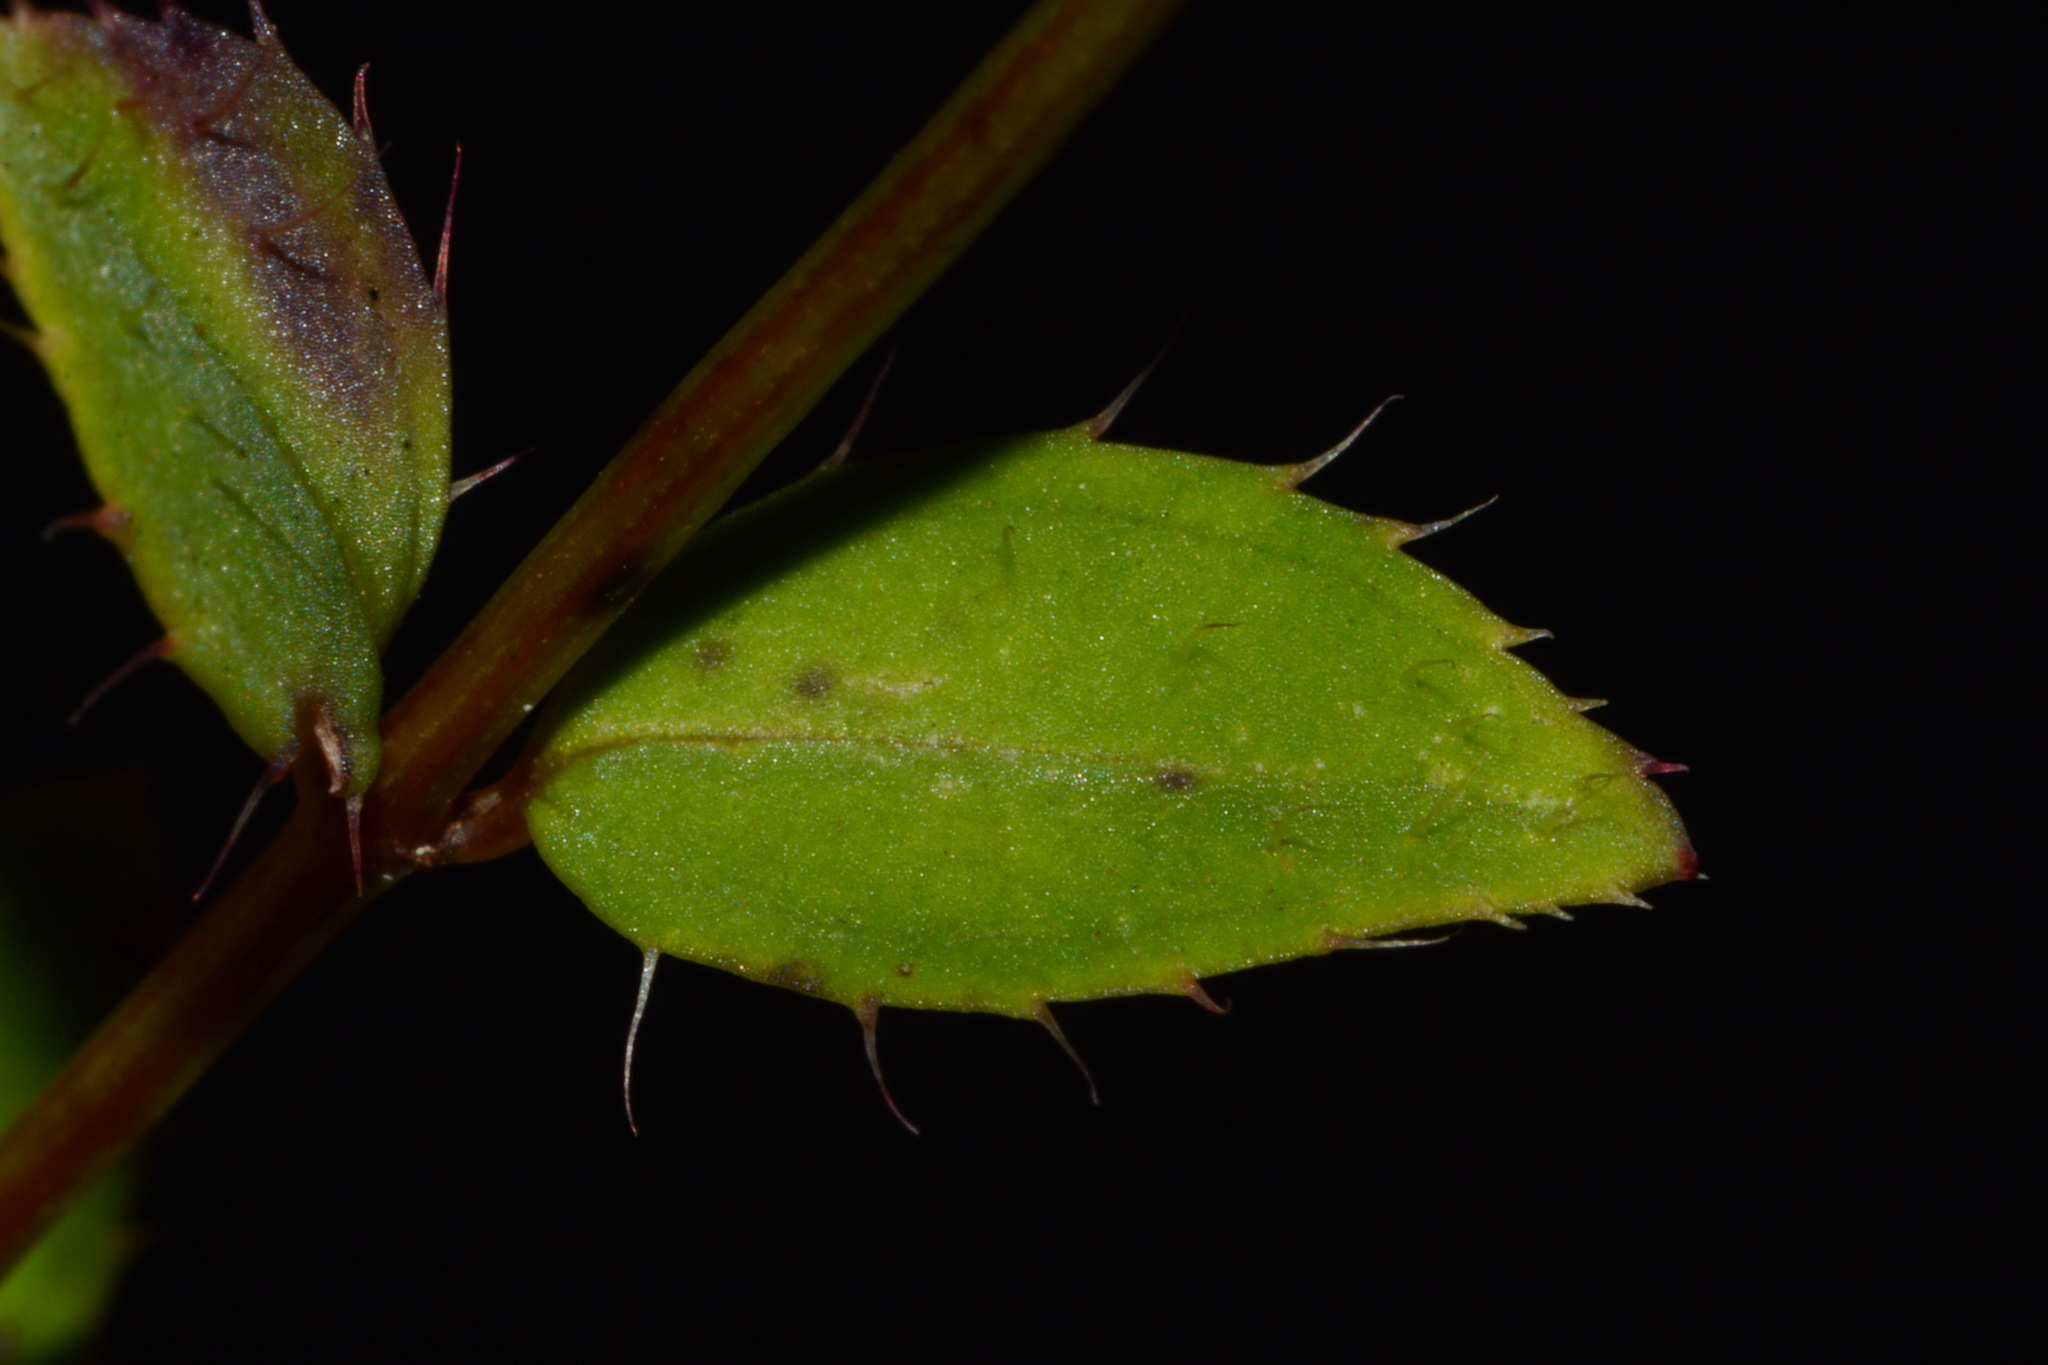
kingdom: Plantae
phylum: Tracheophyta
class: Magnoliopsida
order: Myrtales
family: Melastomataceae
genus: Rhexia
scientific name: Rhexia petiolata
